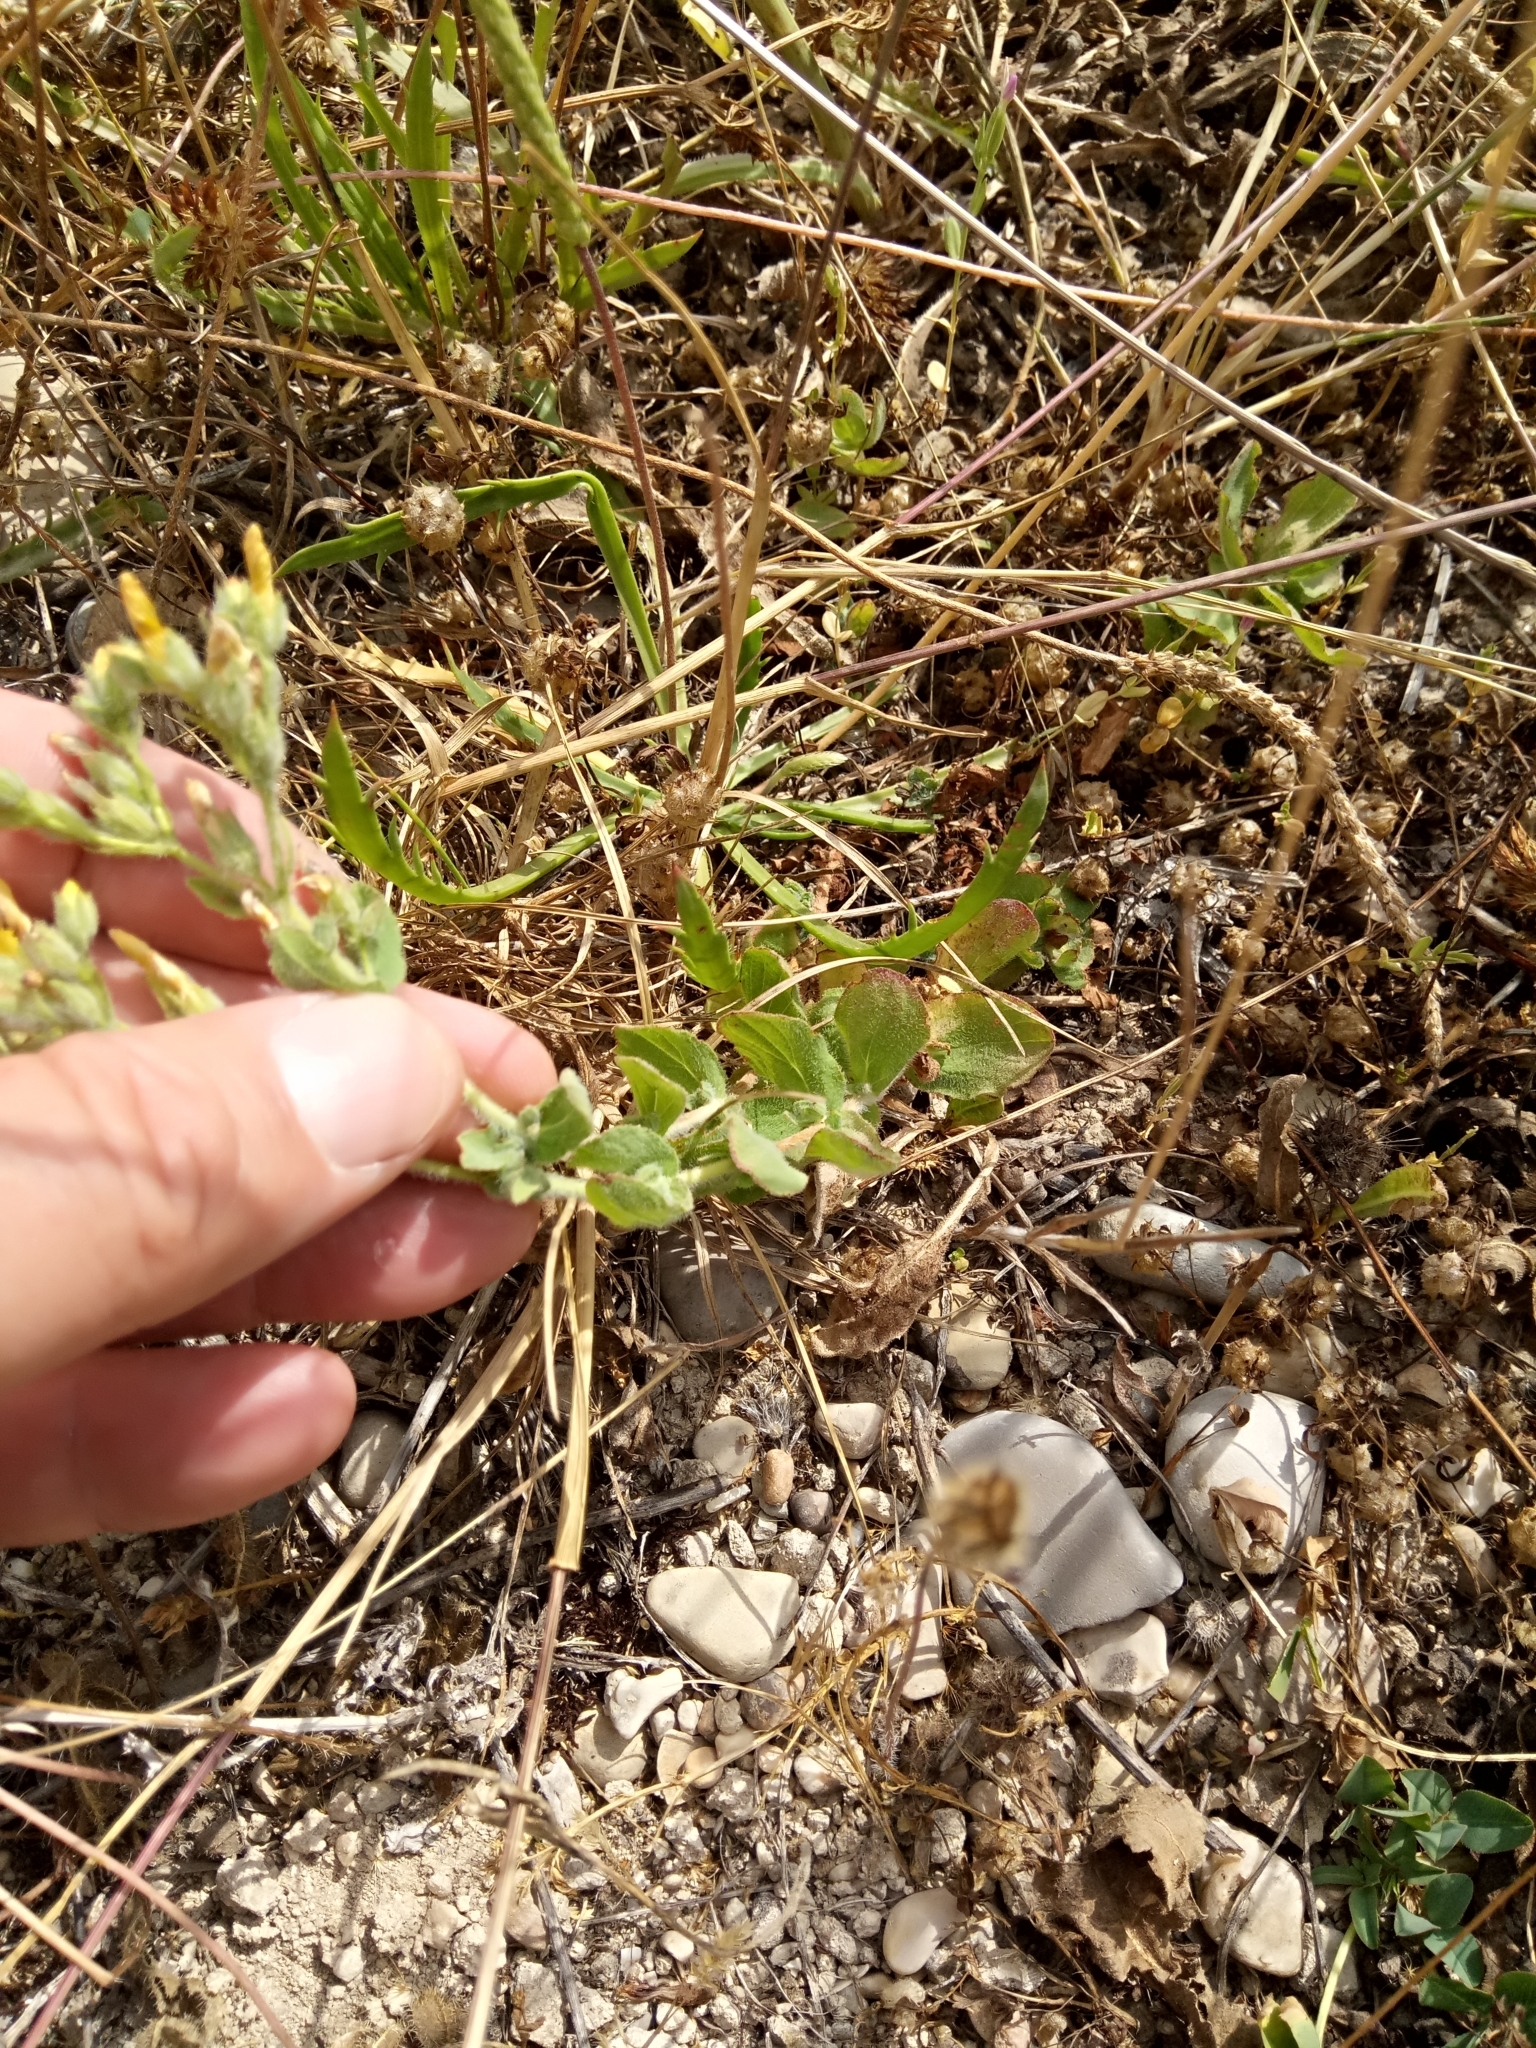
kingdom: Plantae
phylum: Tracheophyta
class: Magnoliopsida
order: Malpighiales
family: Hypericaceae
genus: Hypericum
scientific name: Hypericum pubescens
